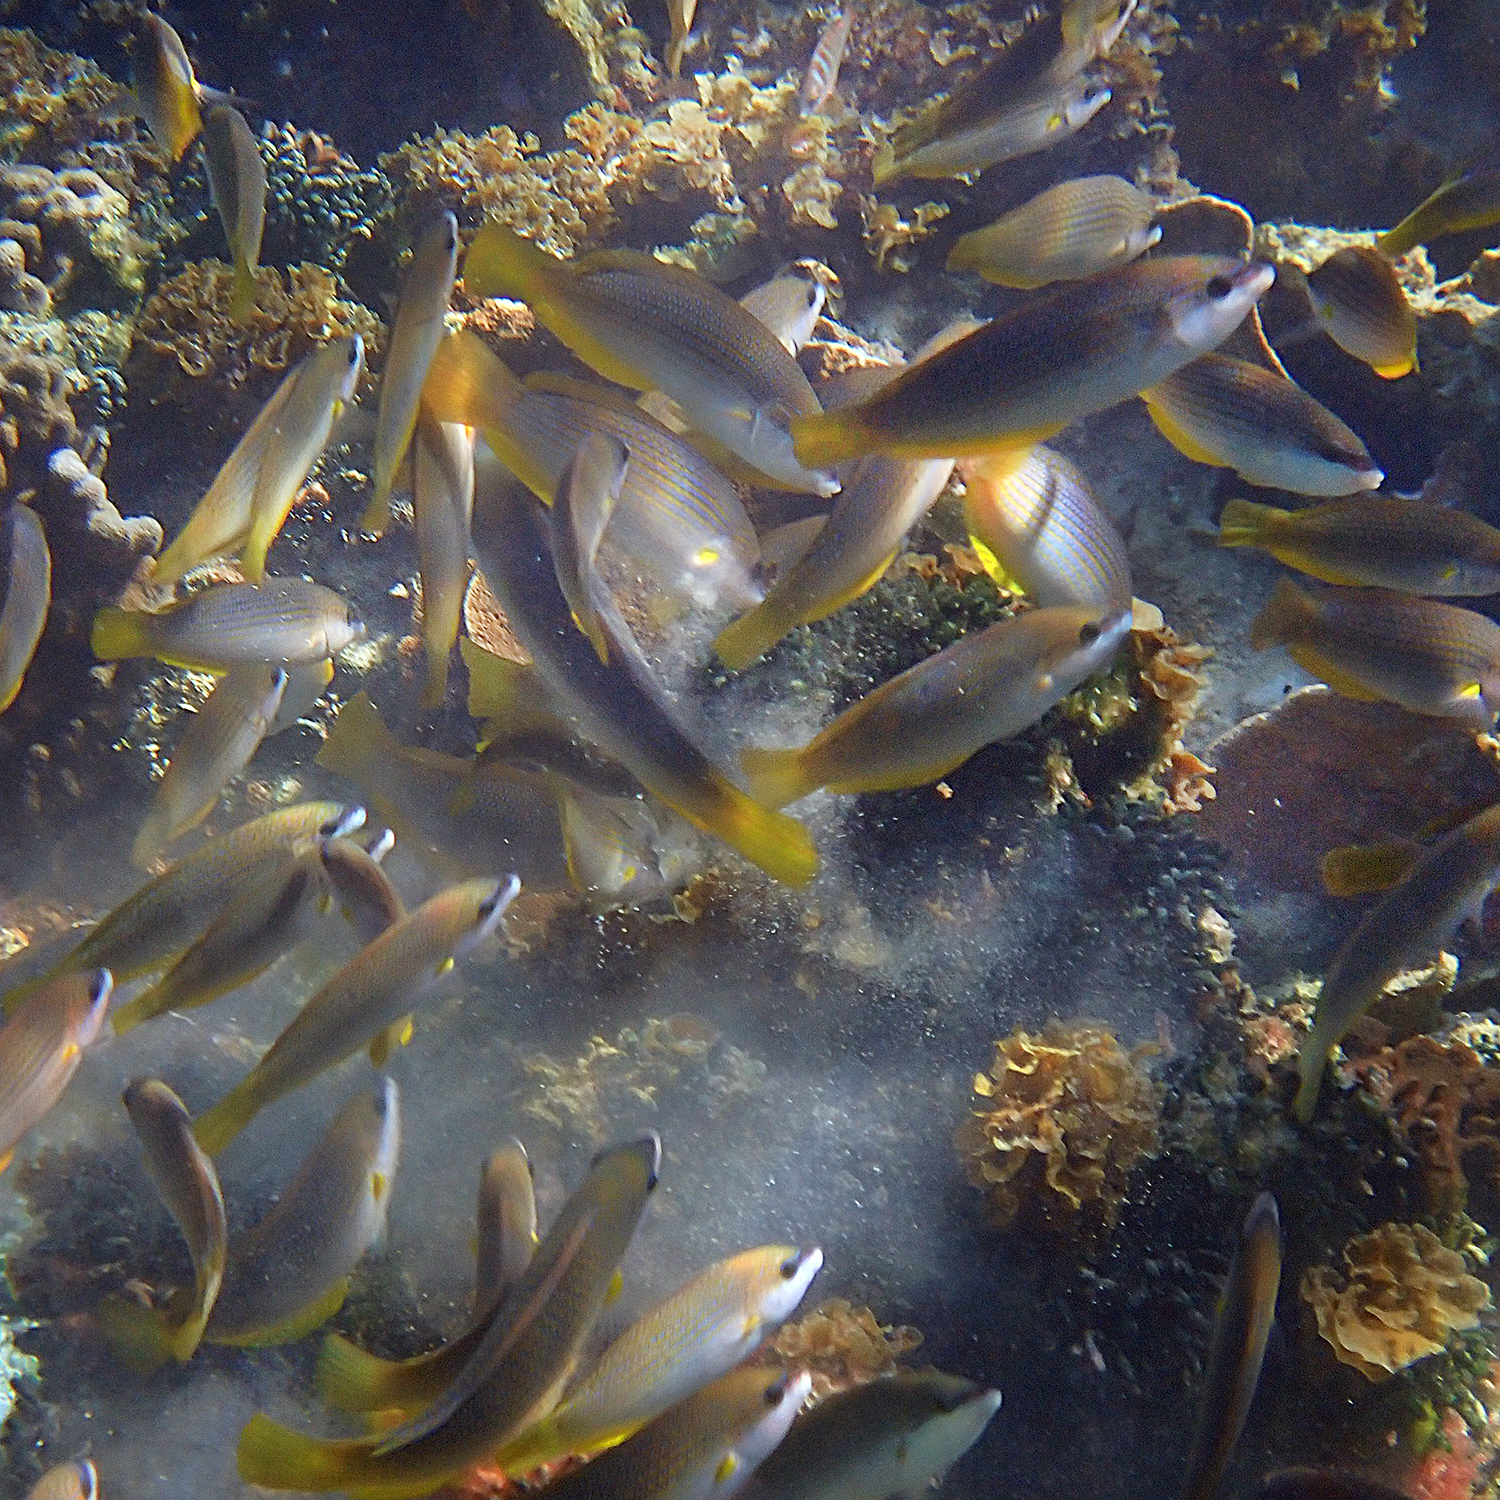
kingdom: Animalia
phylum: Chordata
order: Perciformes
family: Labridae
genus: Anampses
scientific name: Anampses elegans
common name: Elegant wrasse
